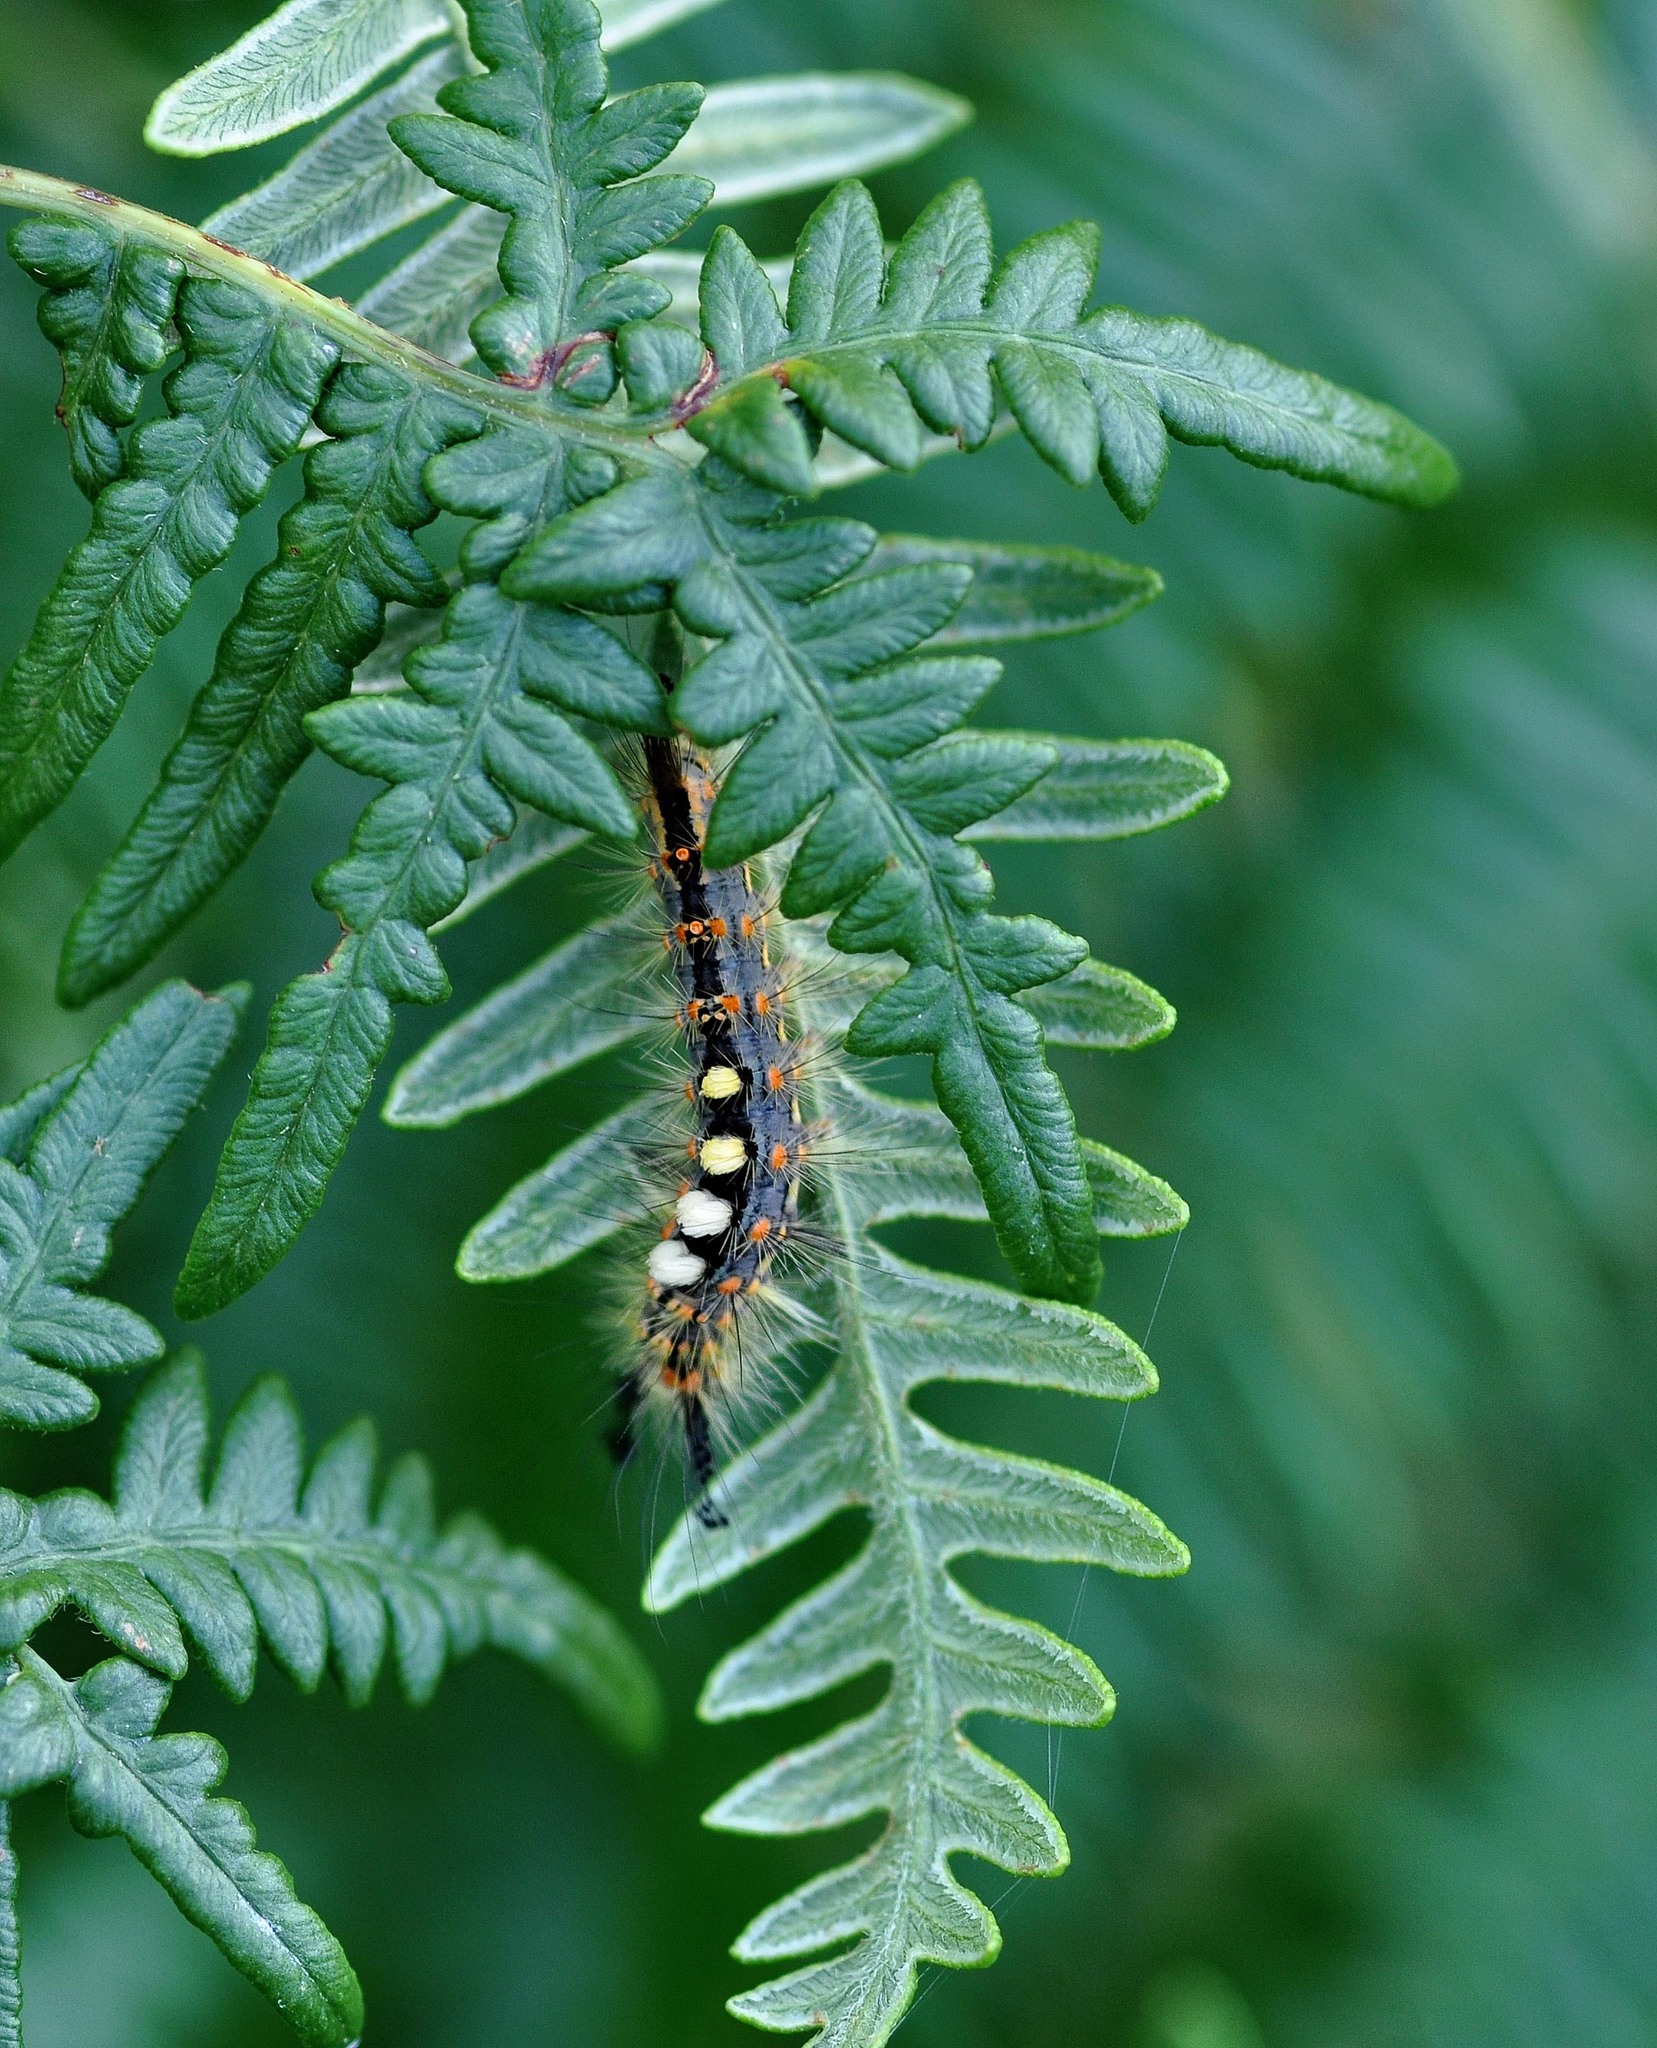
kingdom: Animalia
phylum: Arthropoda
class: Insecta
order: Lepidoptera
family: Erebidae
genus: Orgyia
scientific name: Orgyia antiqua
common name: Vapourer
